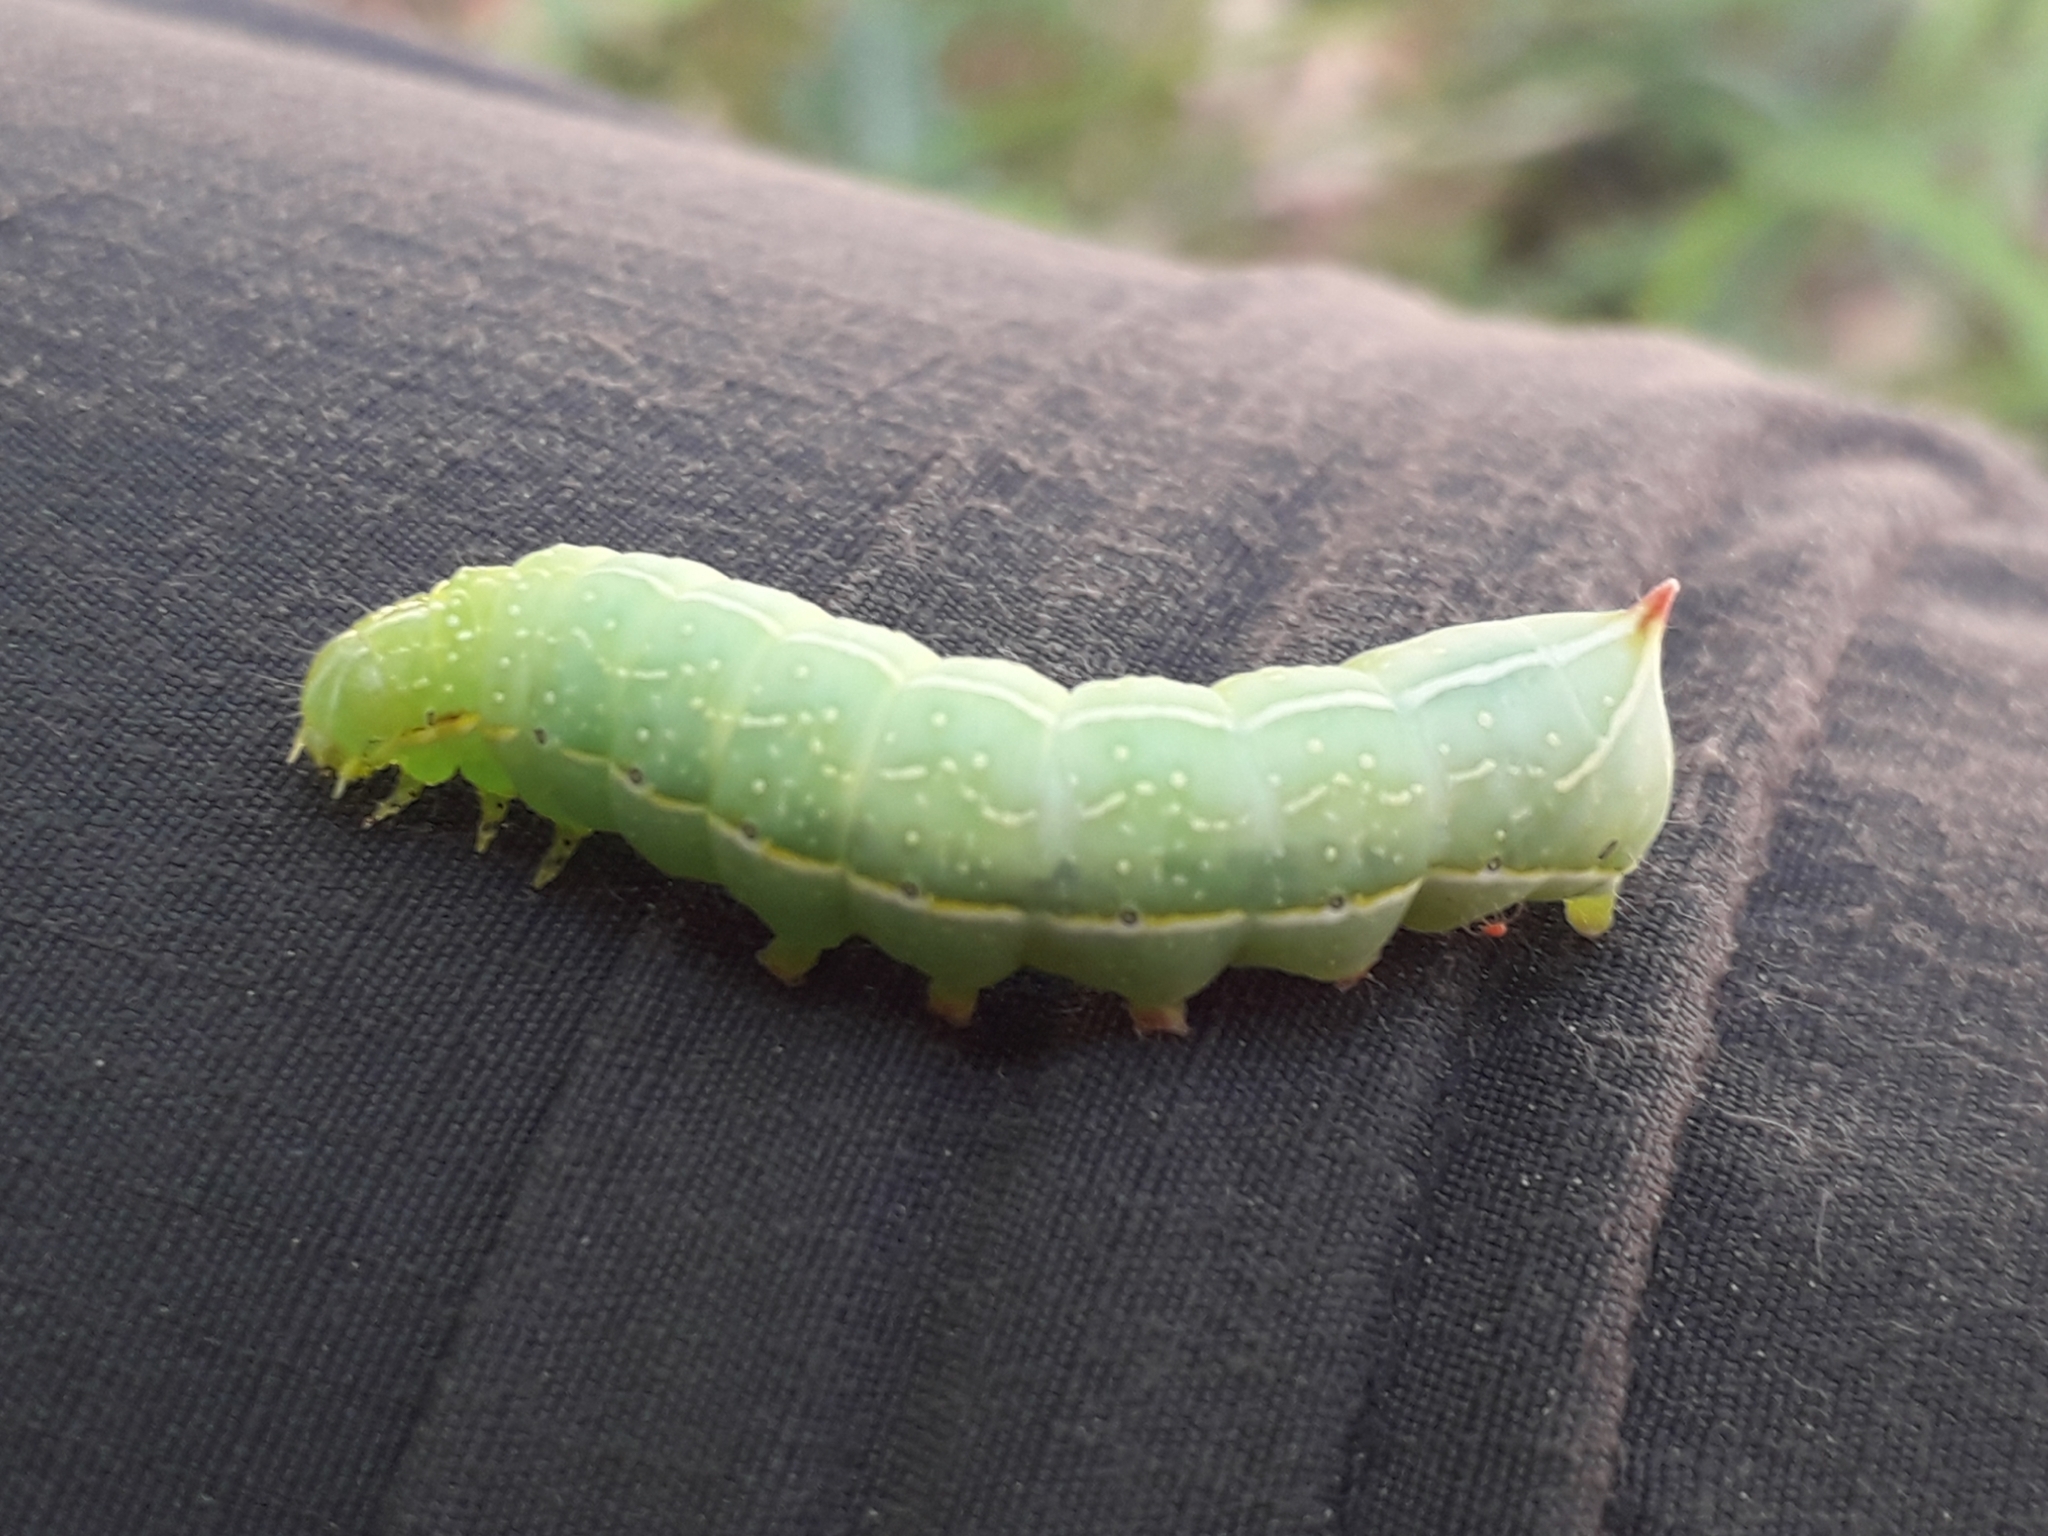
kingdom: Animalia
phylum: Arthropoda
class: Insecta
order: Lepidoptera
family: Noctuidae
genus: Amphipyra
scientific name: Amphipyra berbera
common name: Svensson's copper underwing
